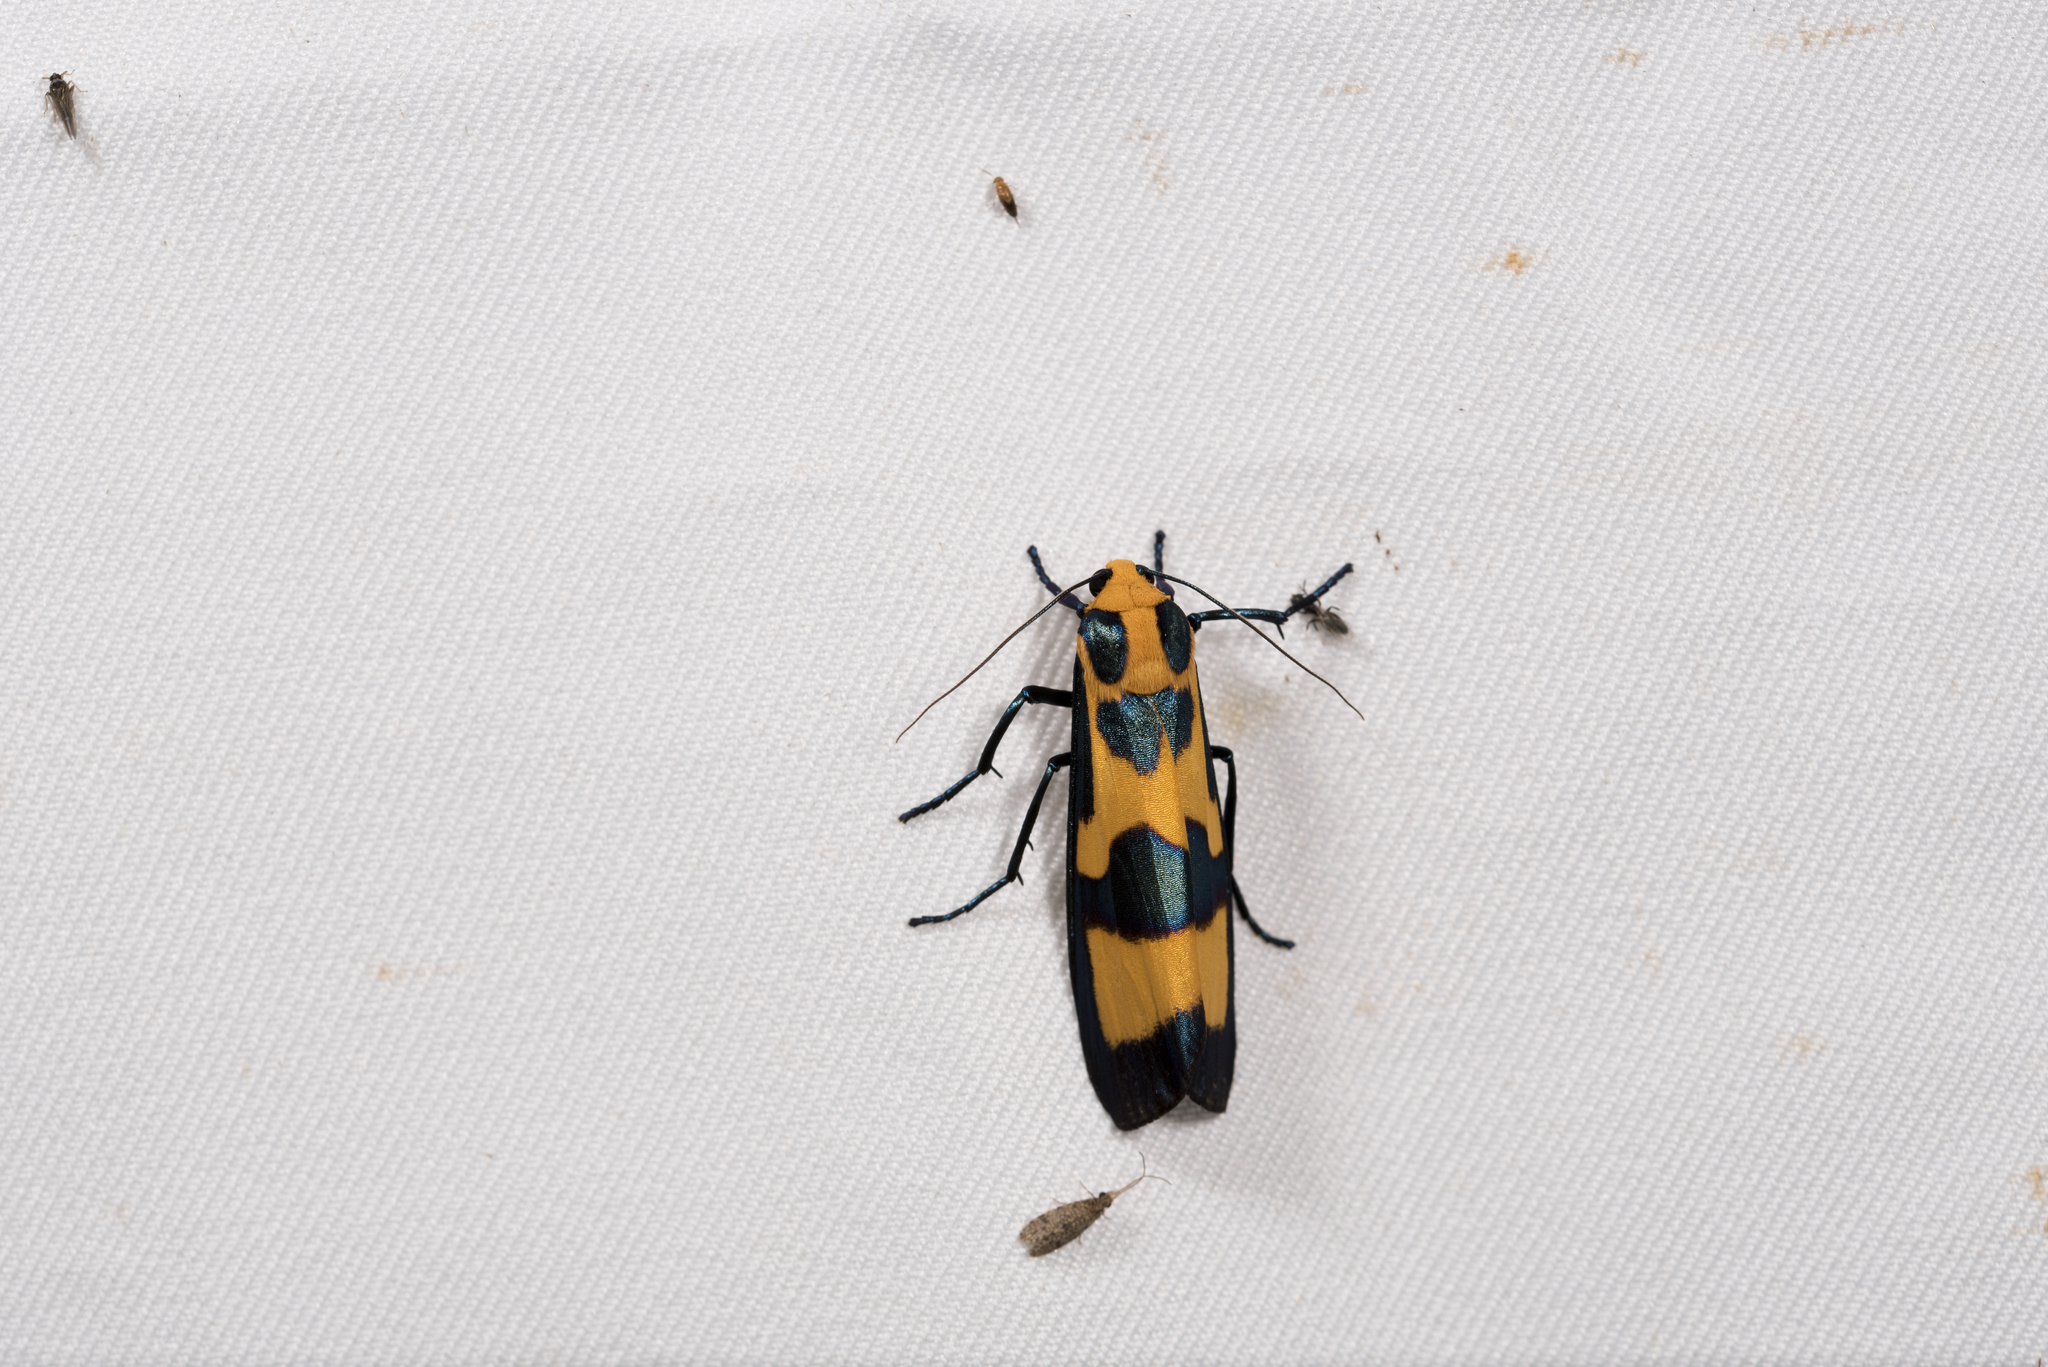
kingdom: Animalia
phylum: Arthropoda
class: Insecta
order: Lepidoptera
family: Erebidae
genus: Chrysaeglia
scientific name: Chrysaeglia magnifica
